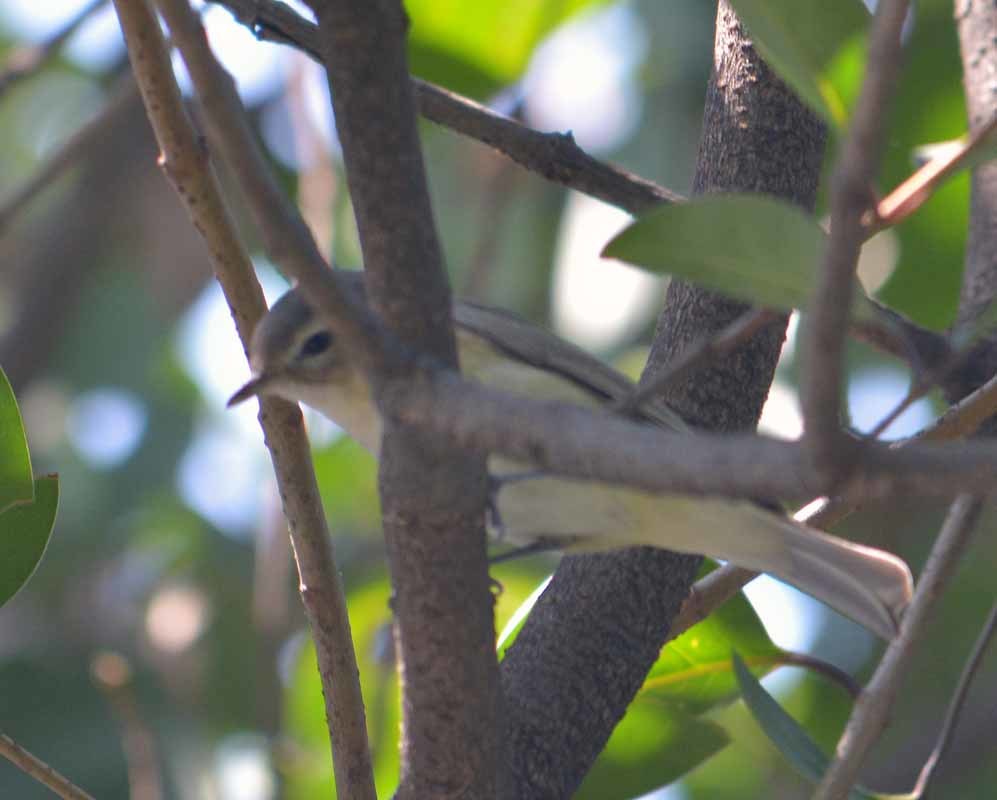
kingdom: Animalia
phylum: Chordata
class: Aves
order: Passeriformes
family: Vireonidae
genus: Vireo
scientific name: Vireo gilvus
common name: Warbling vireo
